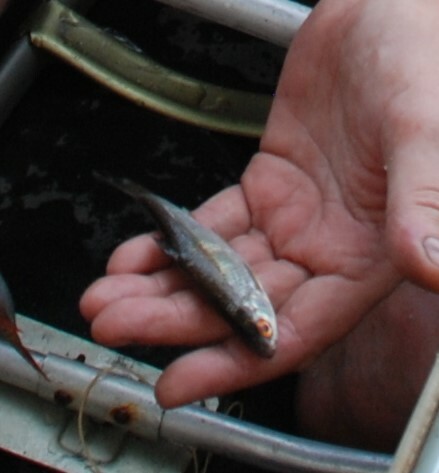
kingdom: Animalia
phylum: Chordata
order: Cypriniformes
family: Cyprinidae
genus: Rutilus
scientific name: Rutilus rutilus
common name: Roach
